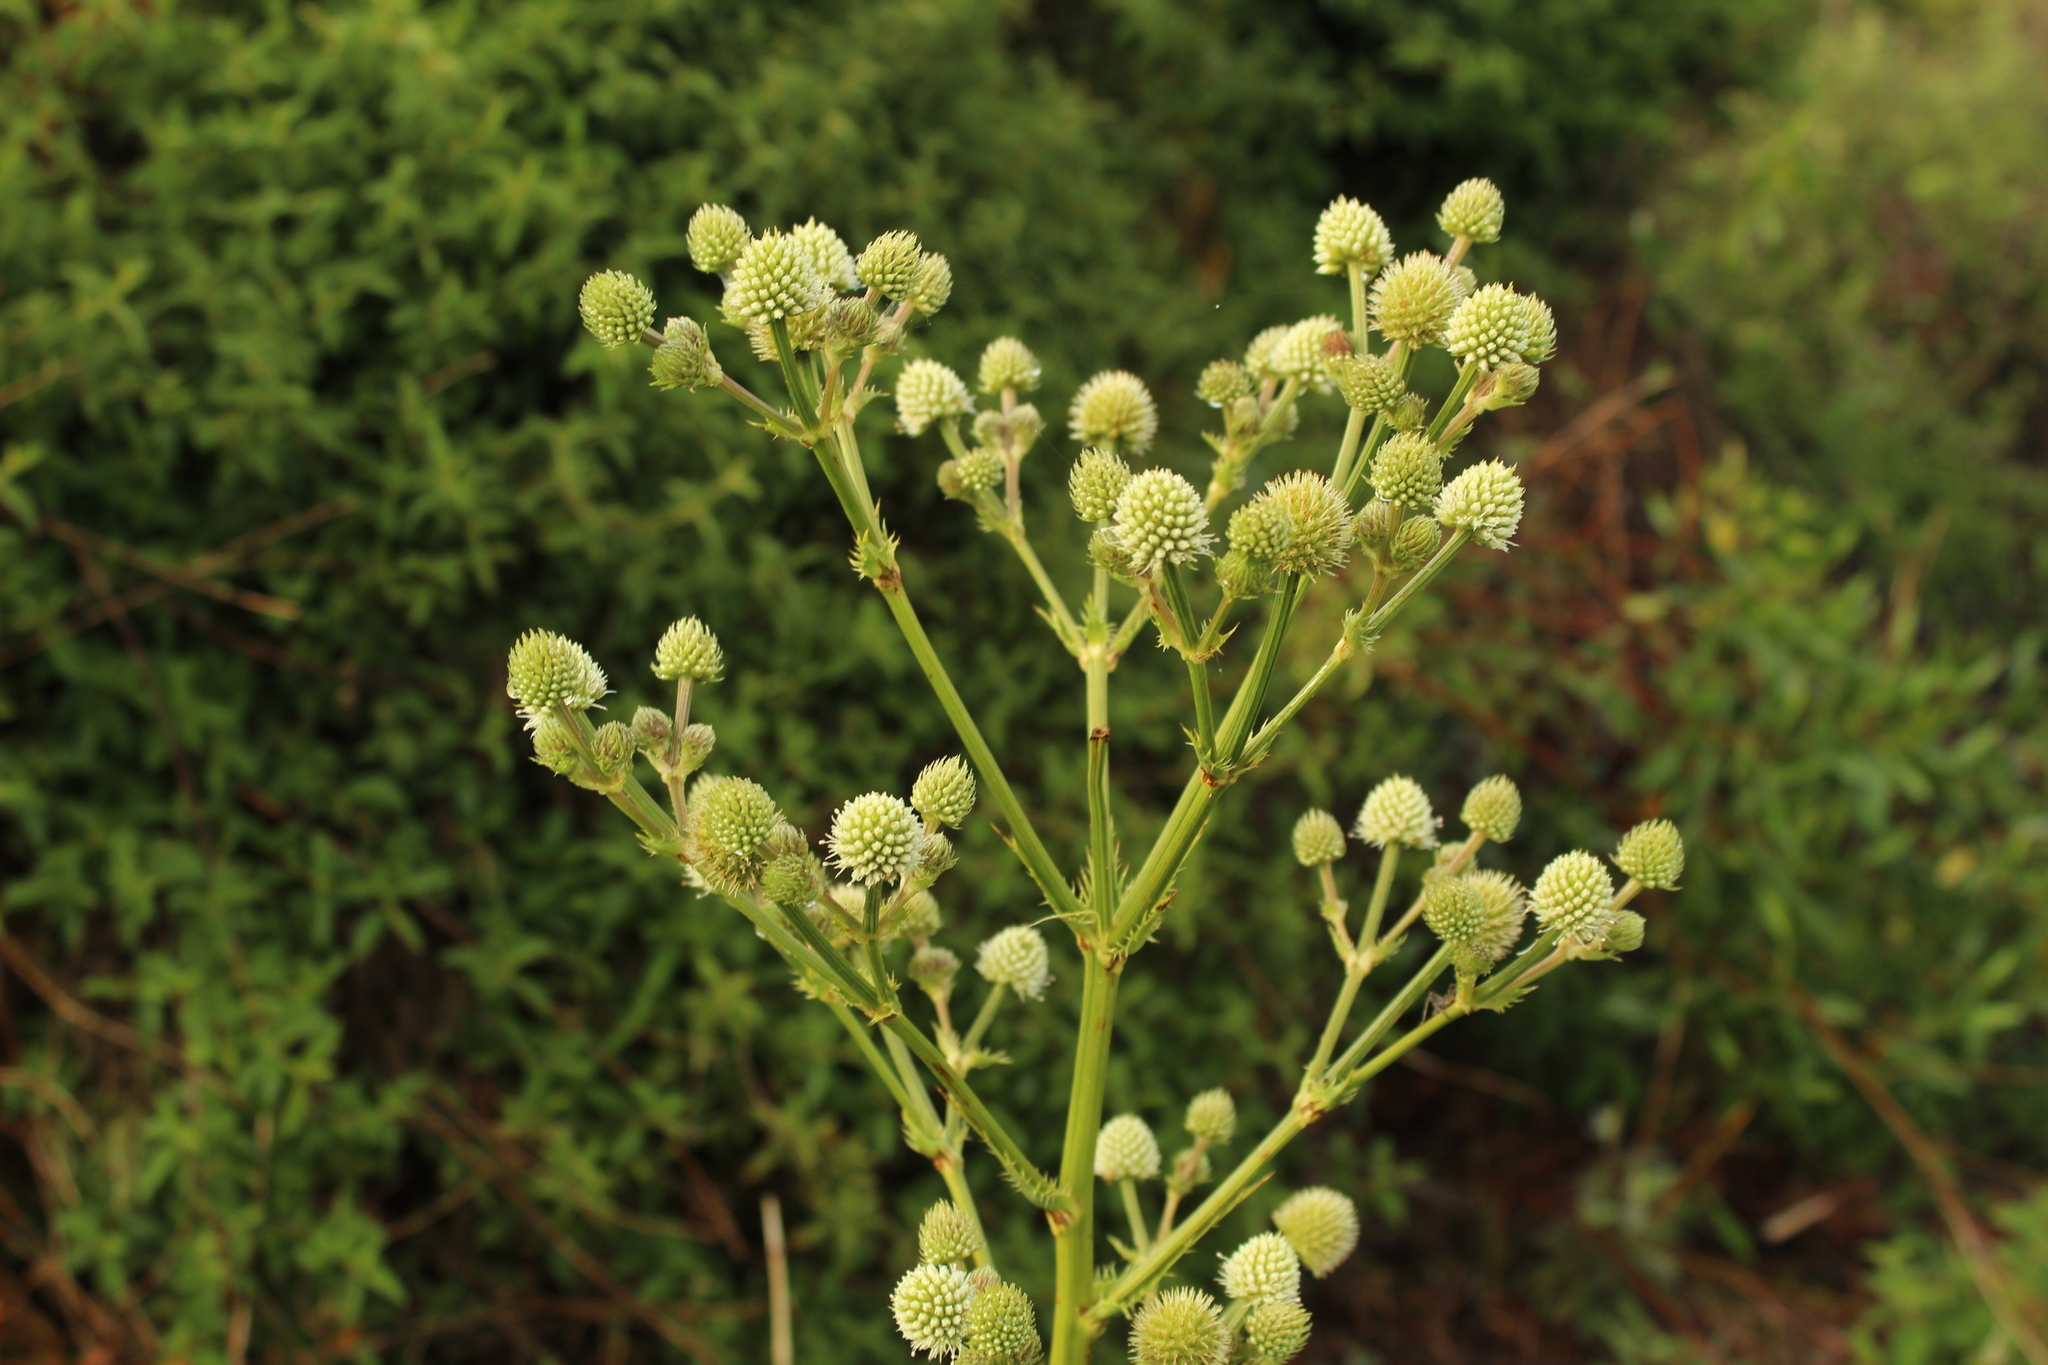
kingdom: Plantae
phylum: Tracheophyta
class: Magnoliopsida
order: Apiales
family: Apiaceae
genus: Eryngium
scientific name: Eryngium humboldtii
